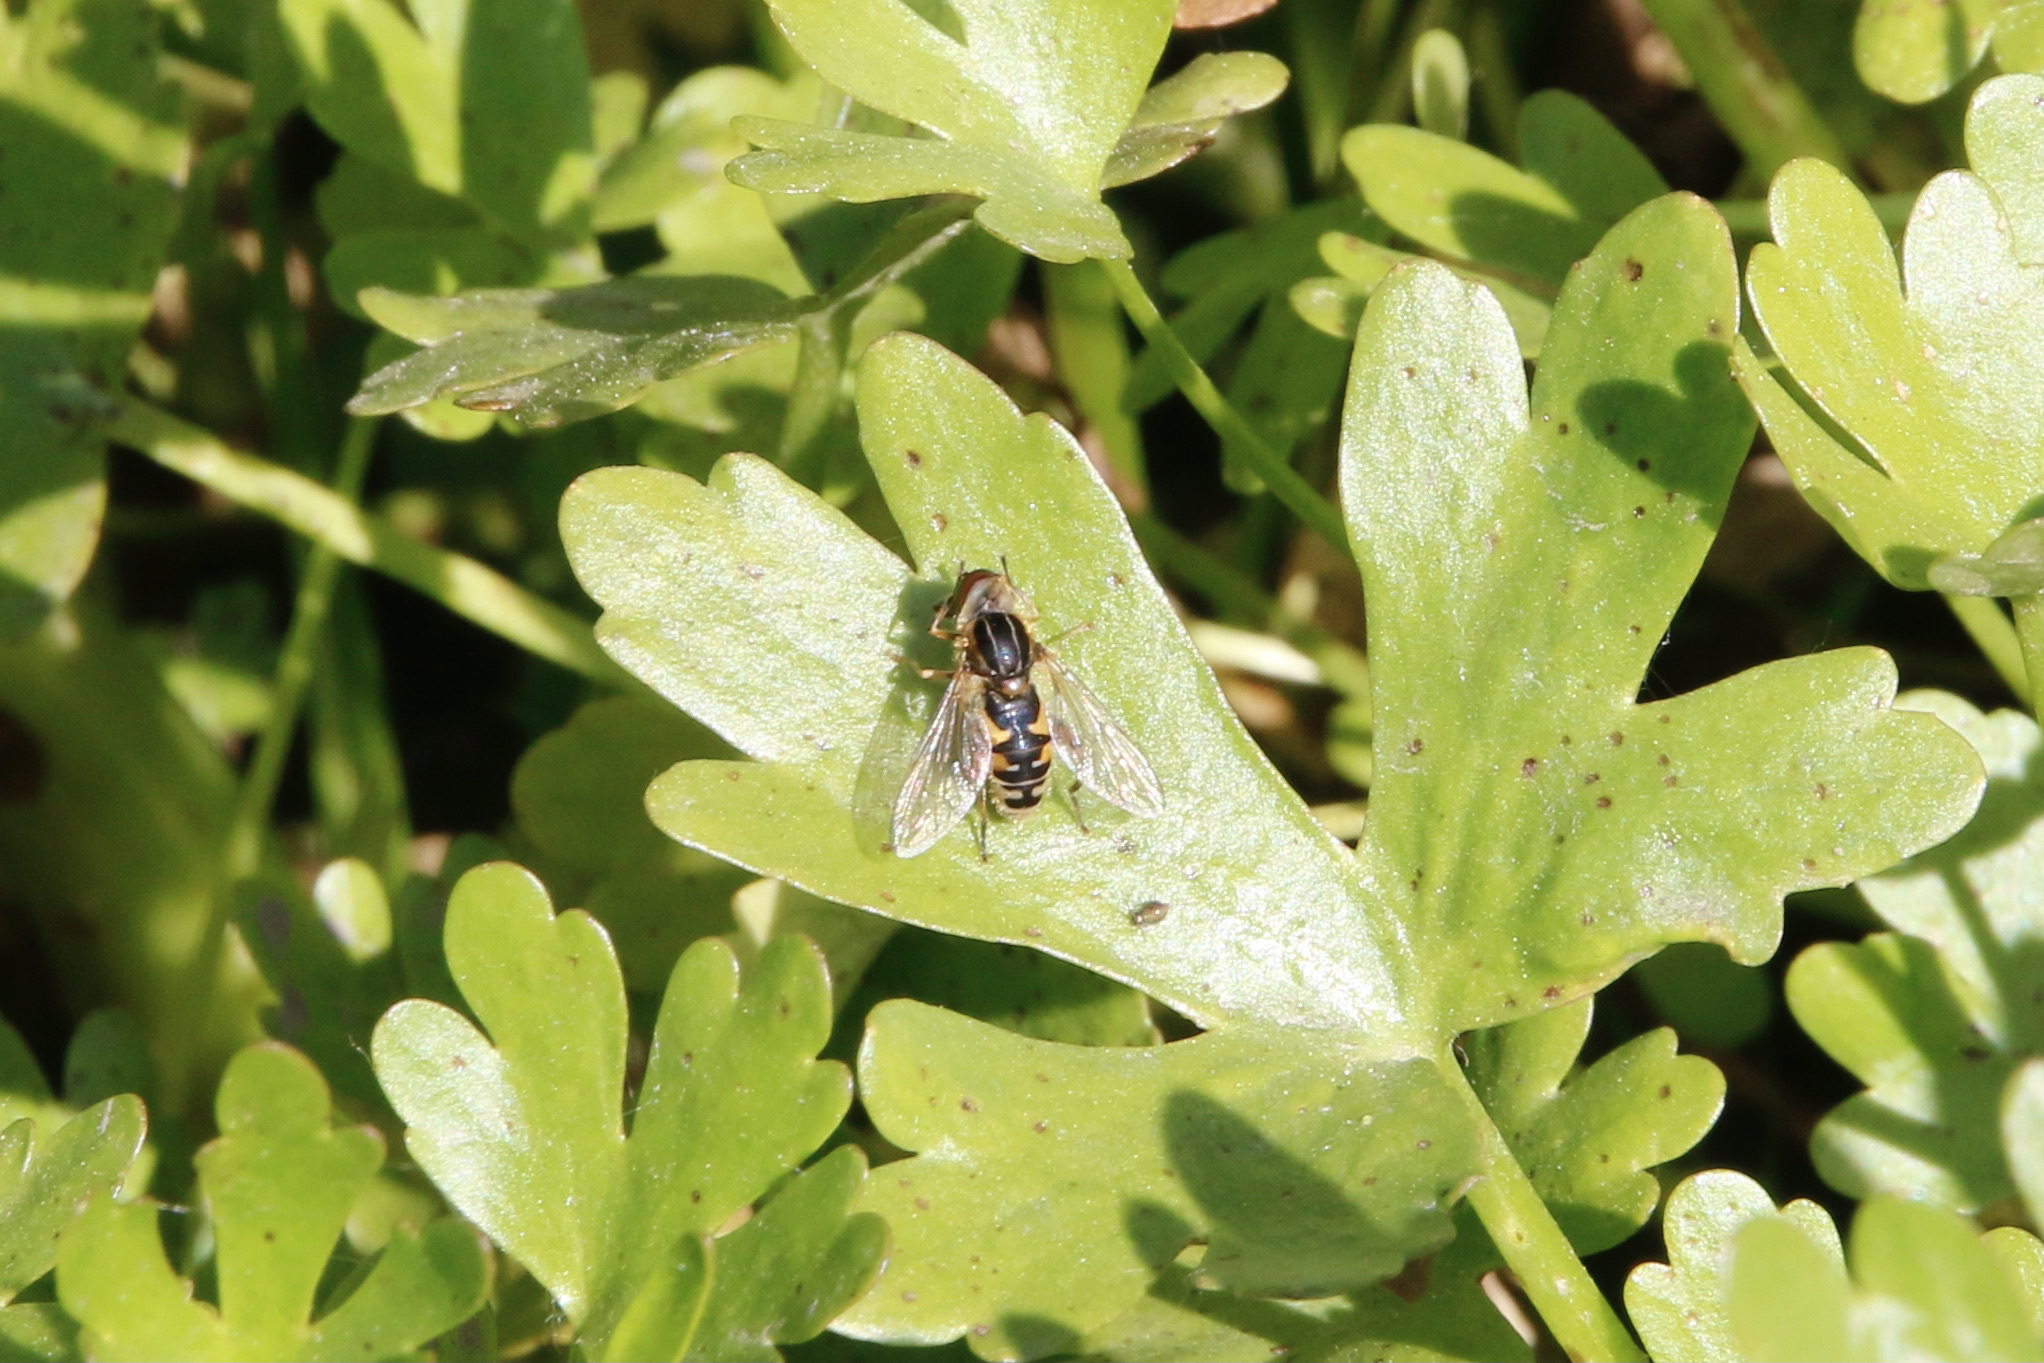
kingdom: Animalia
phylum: Arthropoda
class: Insecta
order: Diptera
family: Syrphidae
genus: Eurimyia
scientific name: Eurimyia stipatus
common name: Long-nosed swamp fly
